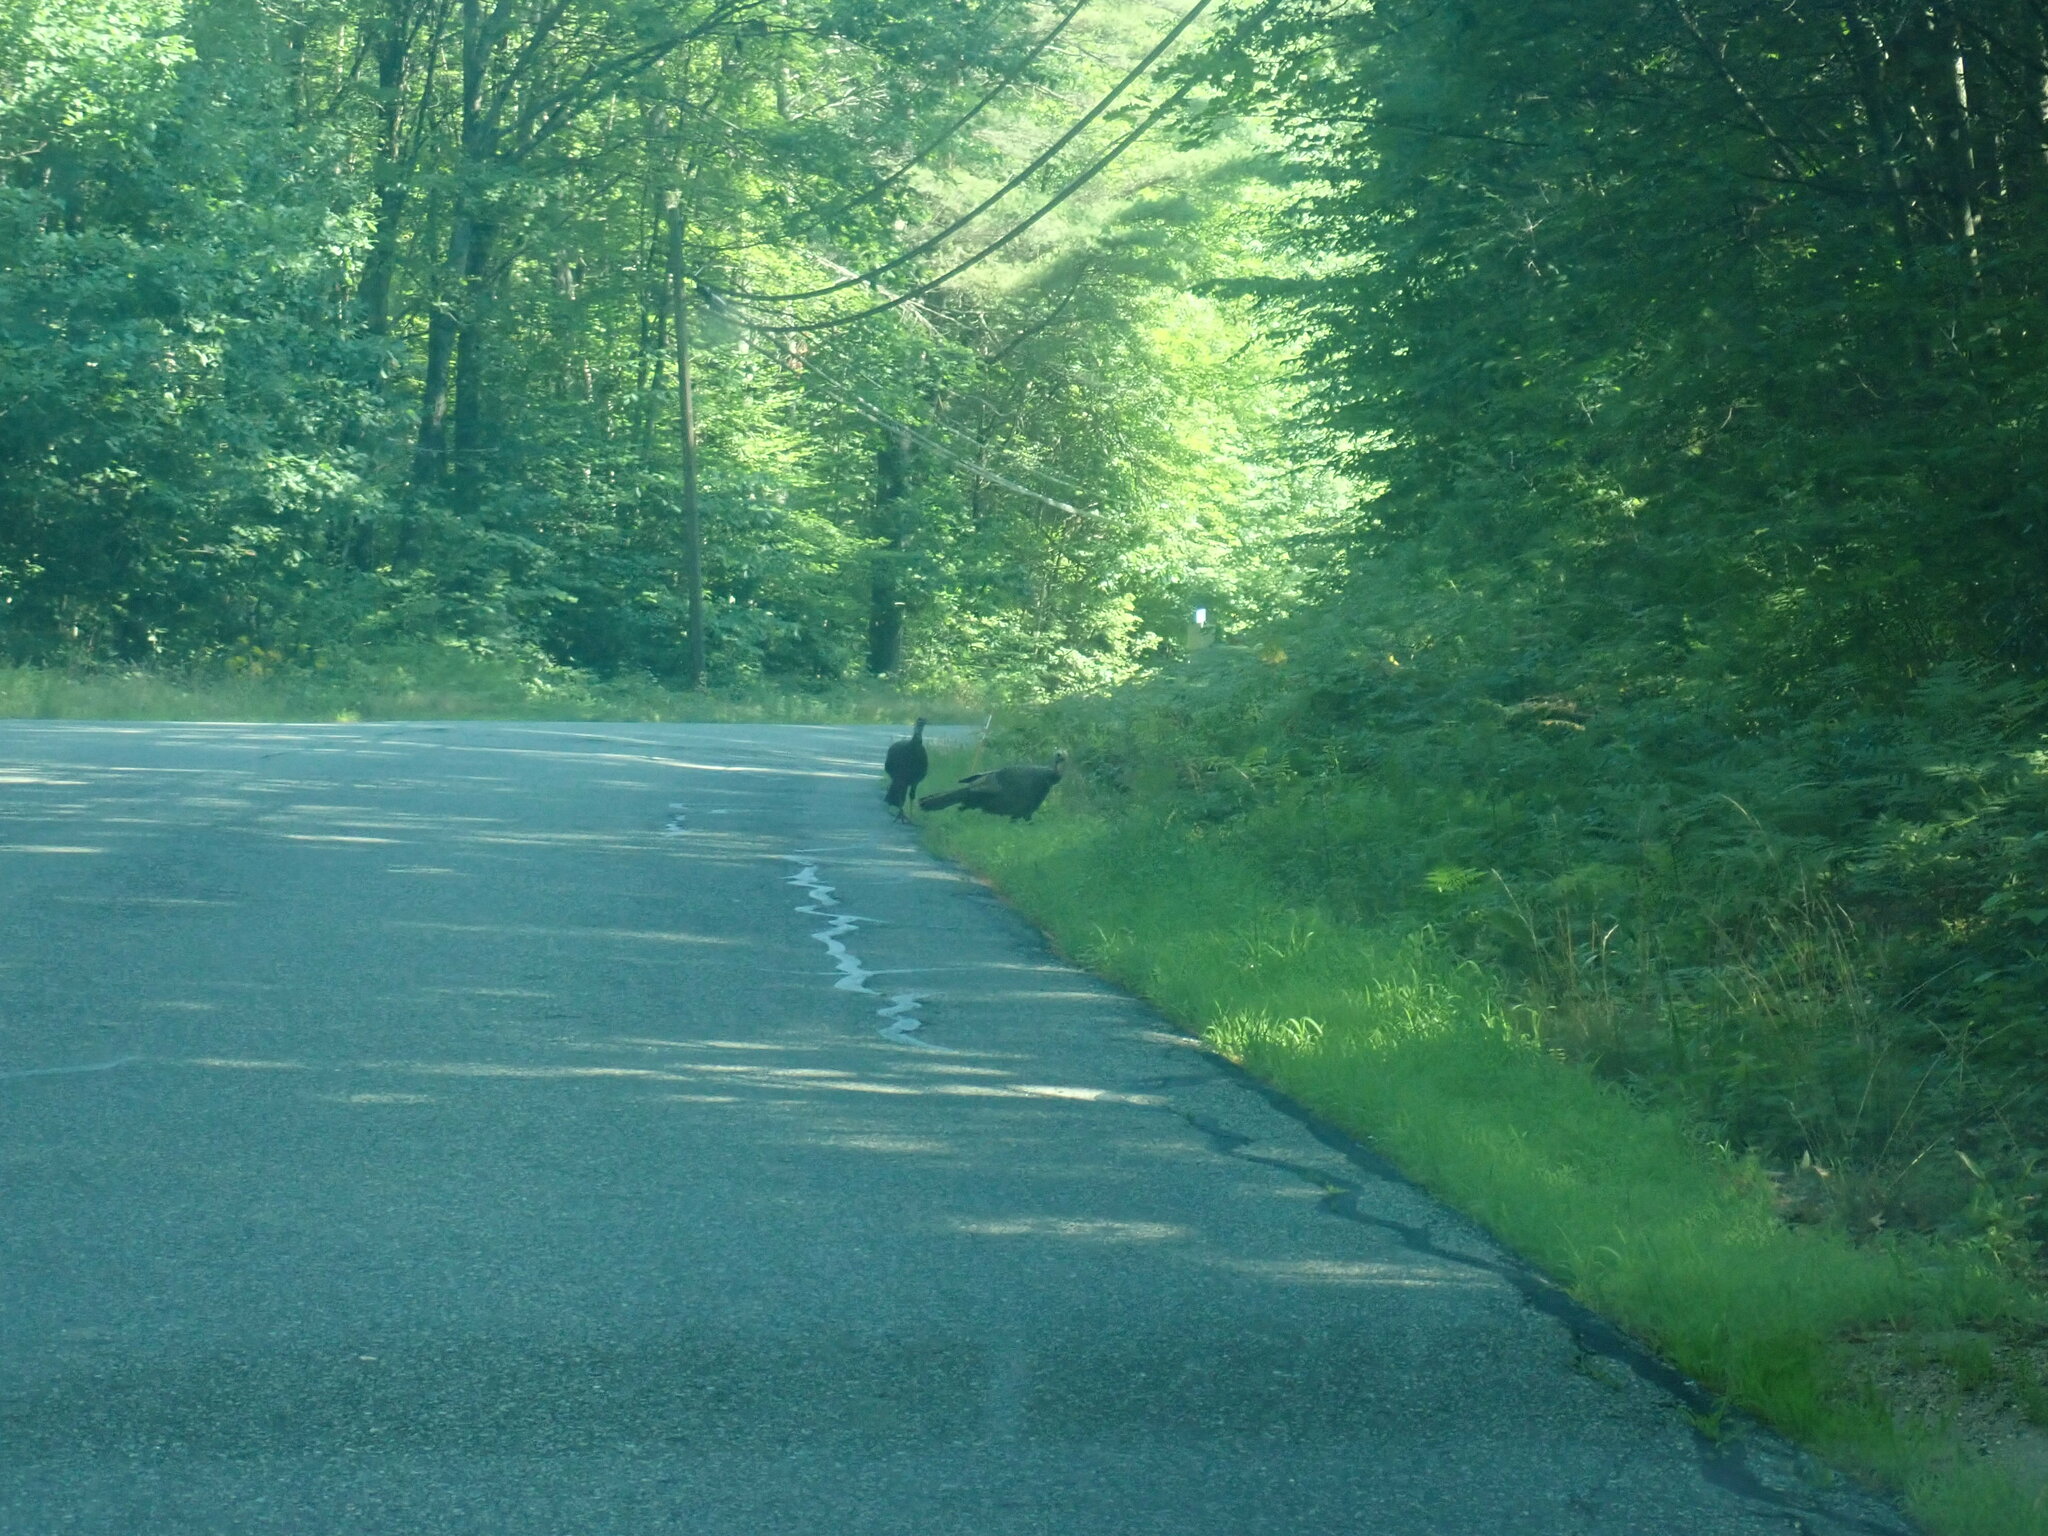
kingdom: Animalia
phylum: Chordata
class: Aves
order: Galliformes
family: Phasianidae
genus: Meleagris
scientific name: Meleagris gallopavo
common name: Wild turkey
